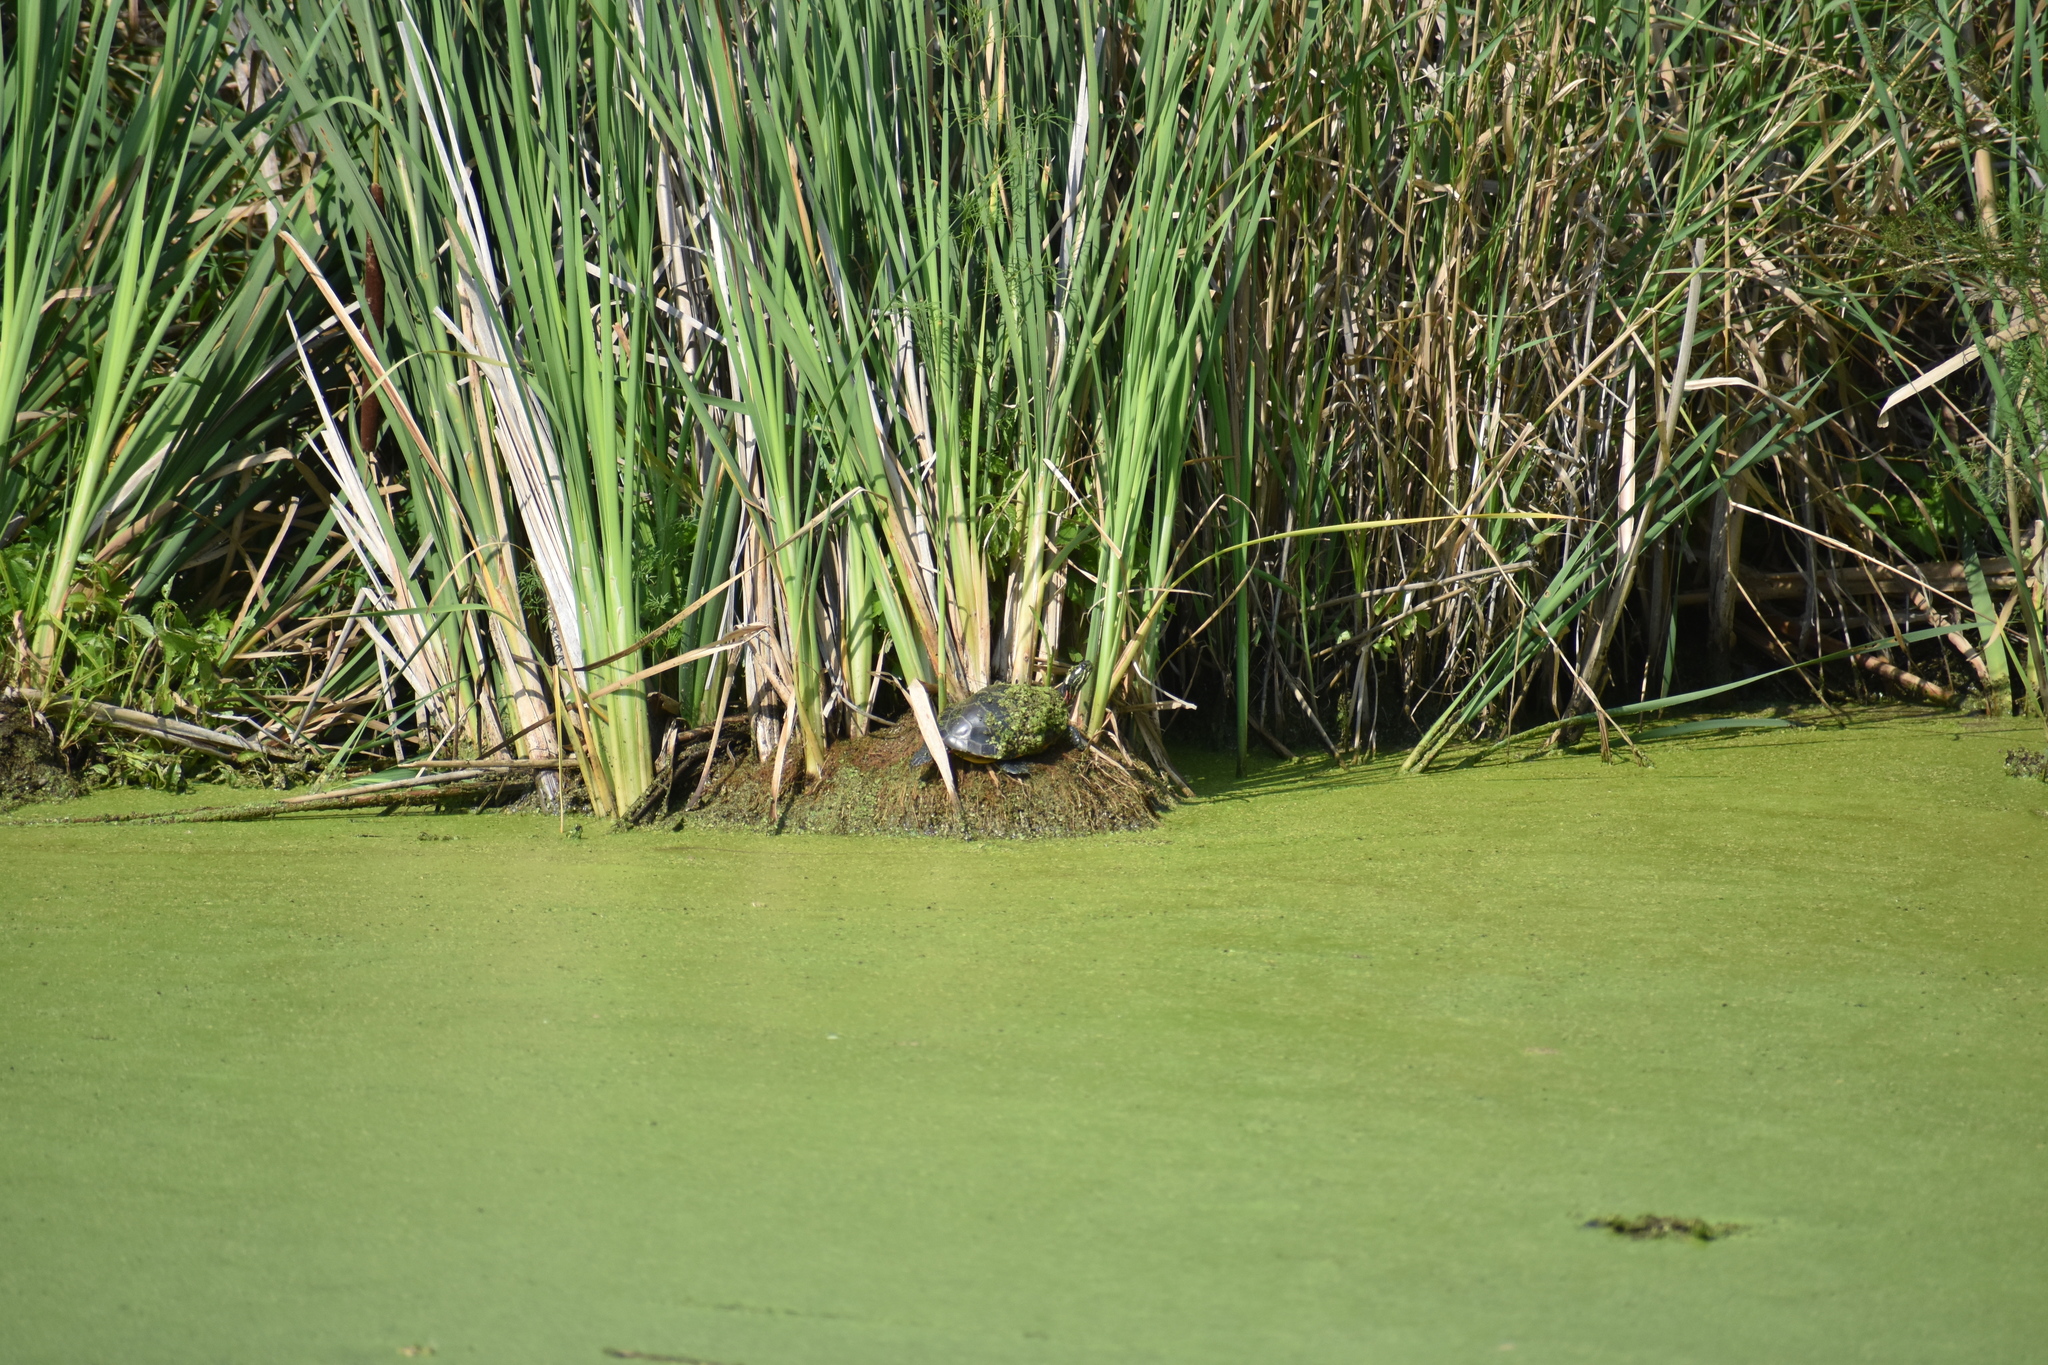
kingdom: Animalia
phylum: Chordata
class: Testudines
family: Emydidae
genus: Chrysemys
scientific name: Chrysemys picta
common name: Painted turtle
